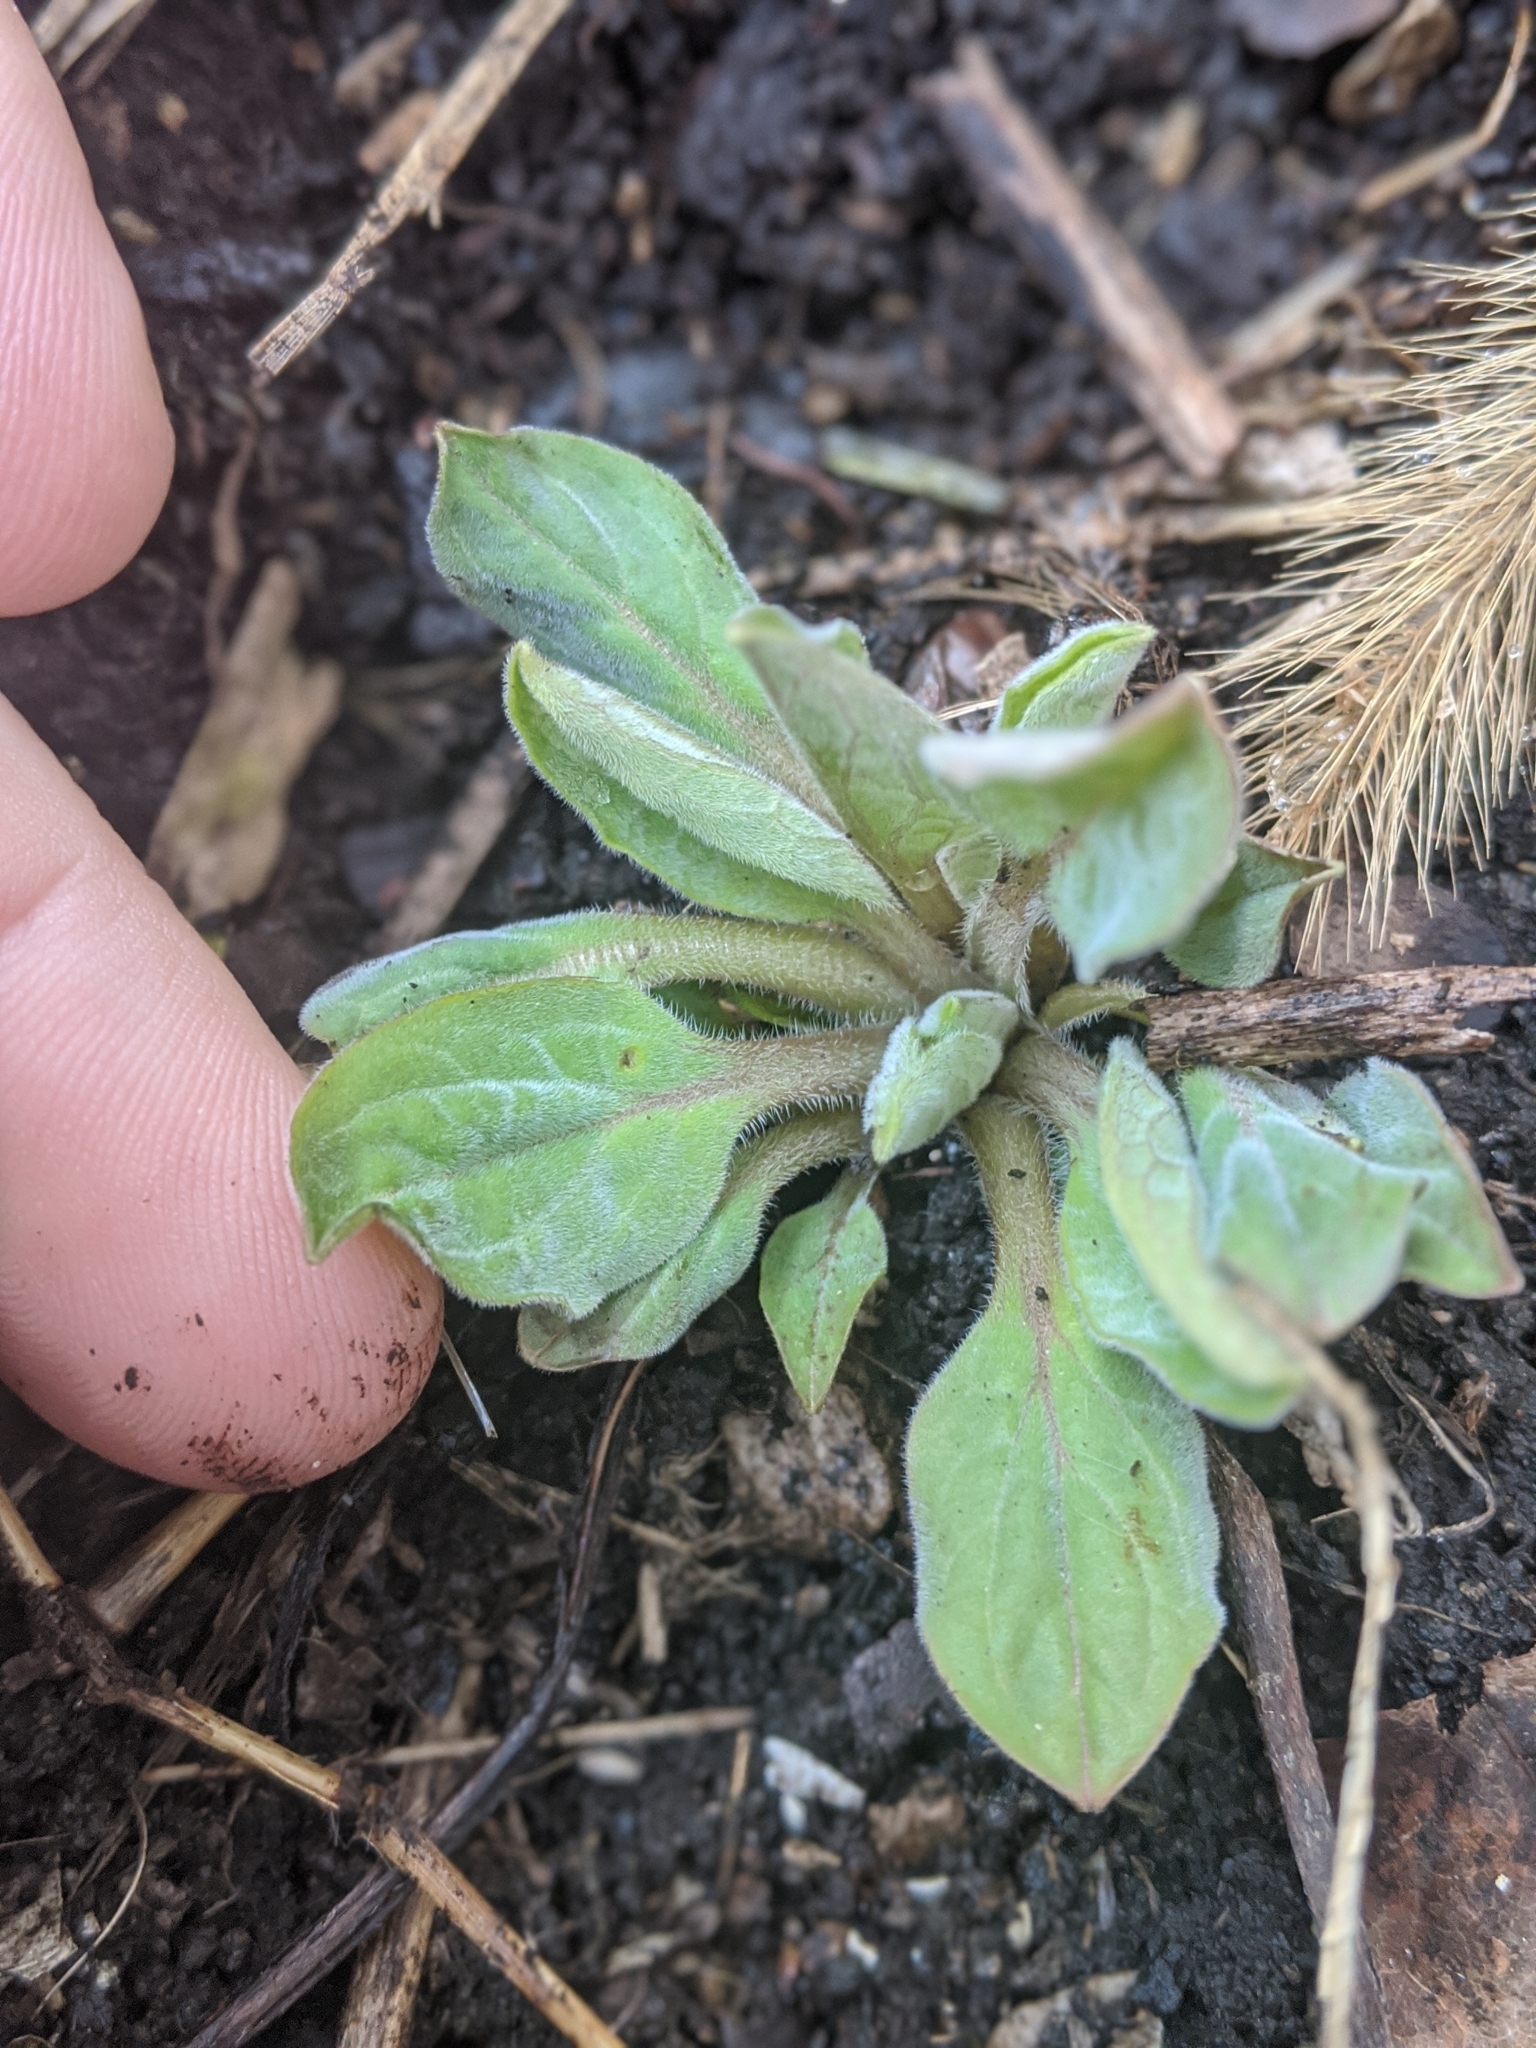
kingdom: Plantae
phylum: Tracheophyta
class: Magnoliopsida
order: Boraginales
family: Boraginaceae
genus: Hackelia
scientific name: Hackelia virginiana
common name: Beggar's-lice
